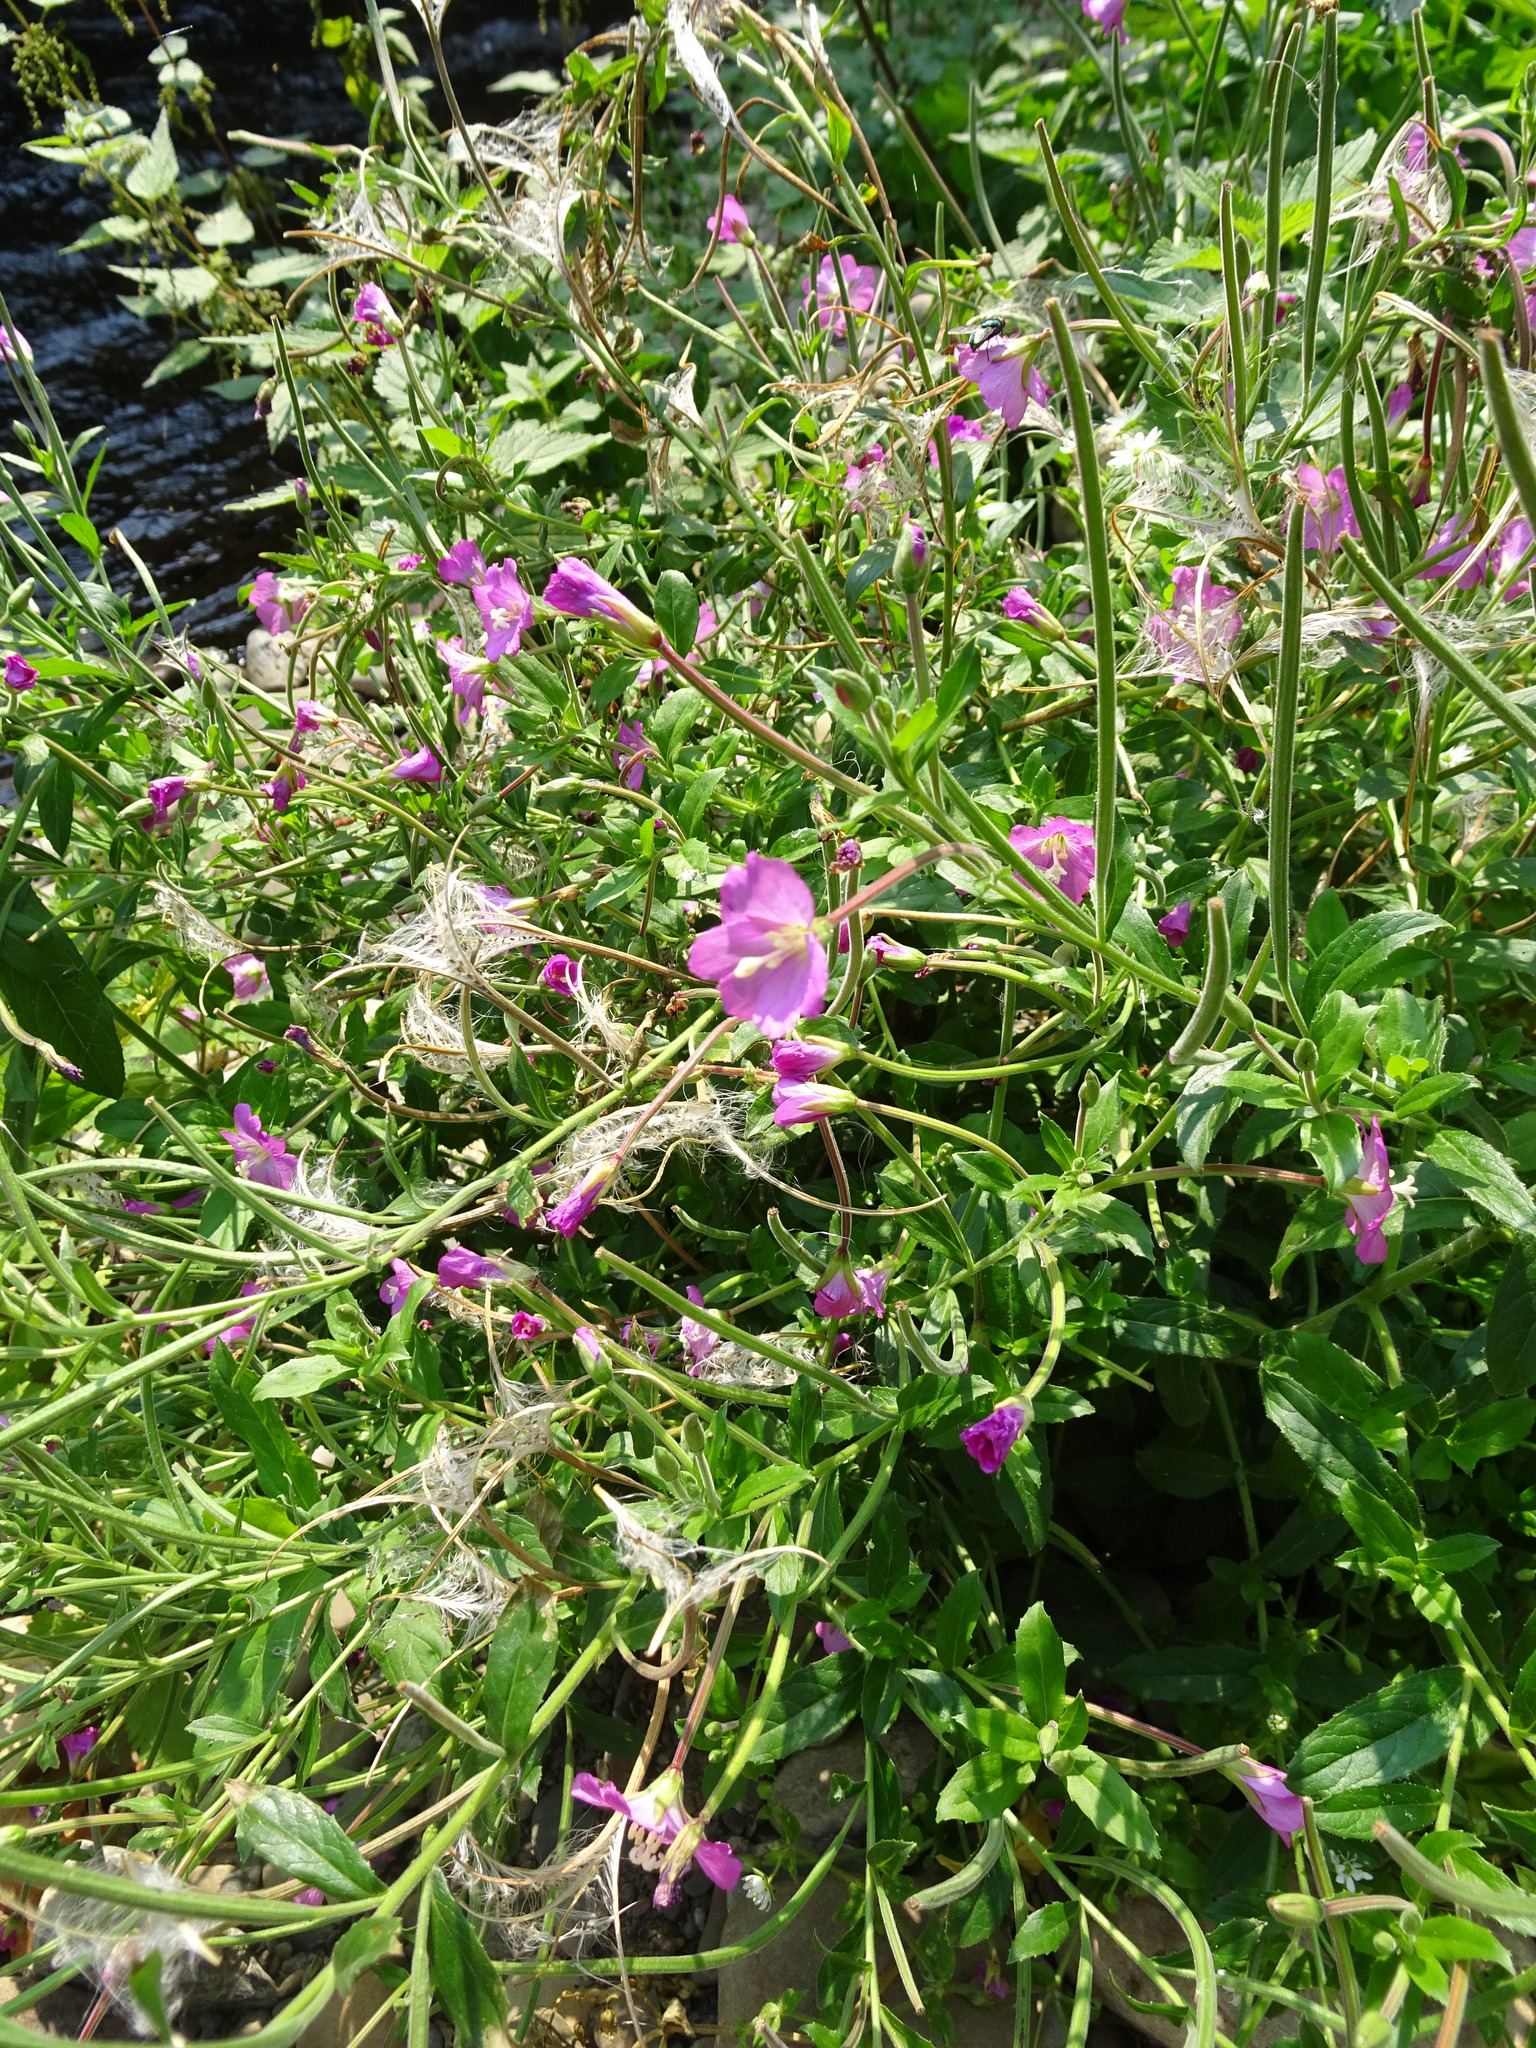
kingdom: Plantae
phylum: Tracheophyta
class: Magnoliopsida
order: Myrtales
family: Onagraceae
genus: Epilobium
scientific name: Epilobium hirsutum
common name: Great willowherb
